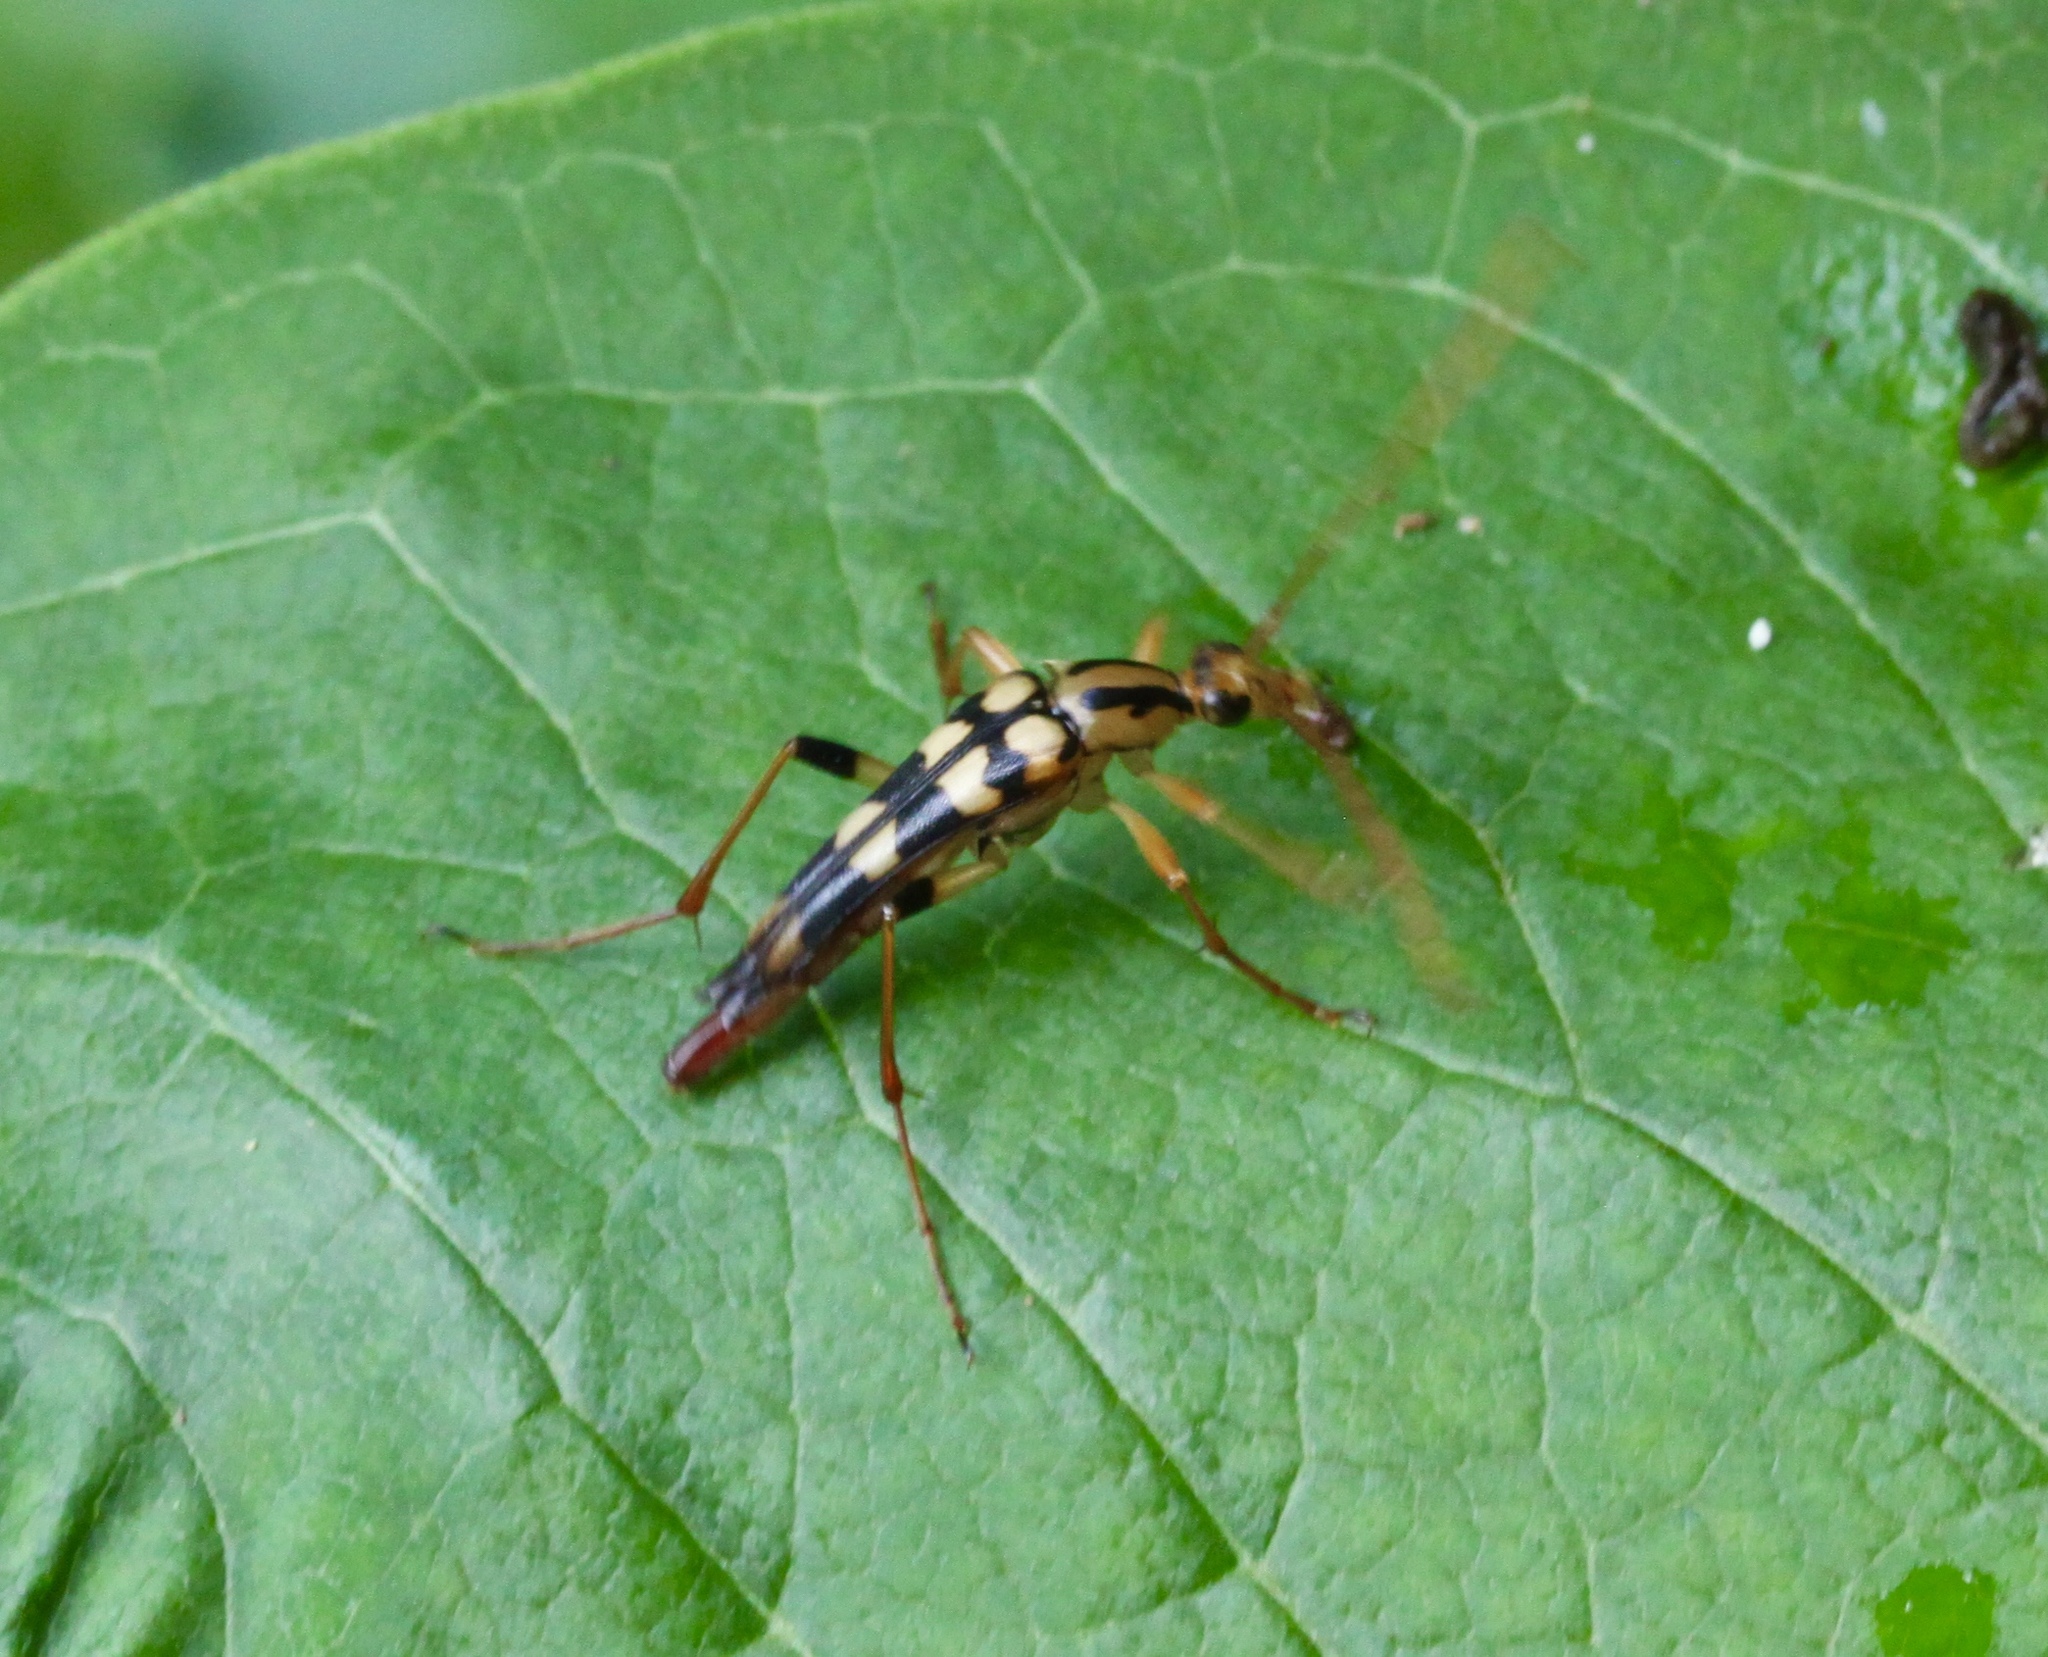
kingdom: Animalia
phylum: Arthropoda
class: Insecta
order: Coleoptera
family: Cerambycidae
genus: Strangalia
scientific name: Strangalia luteicornis
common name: Yellow-horned flower longhorn beetle
